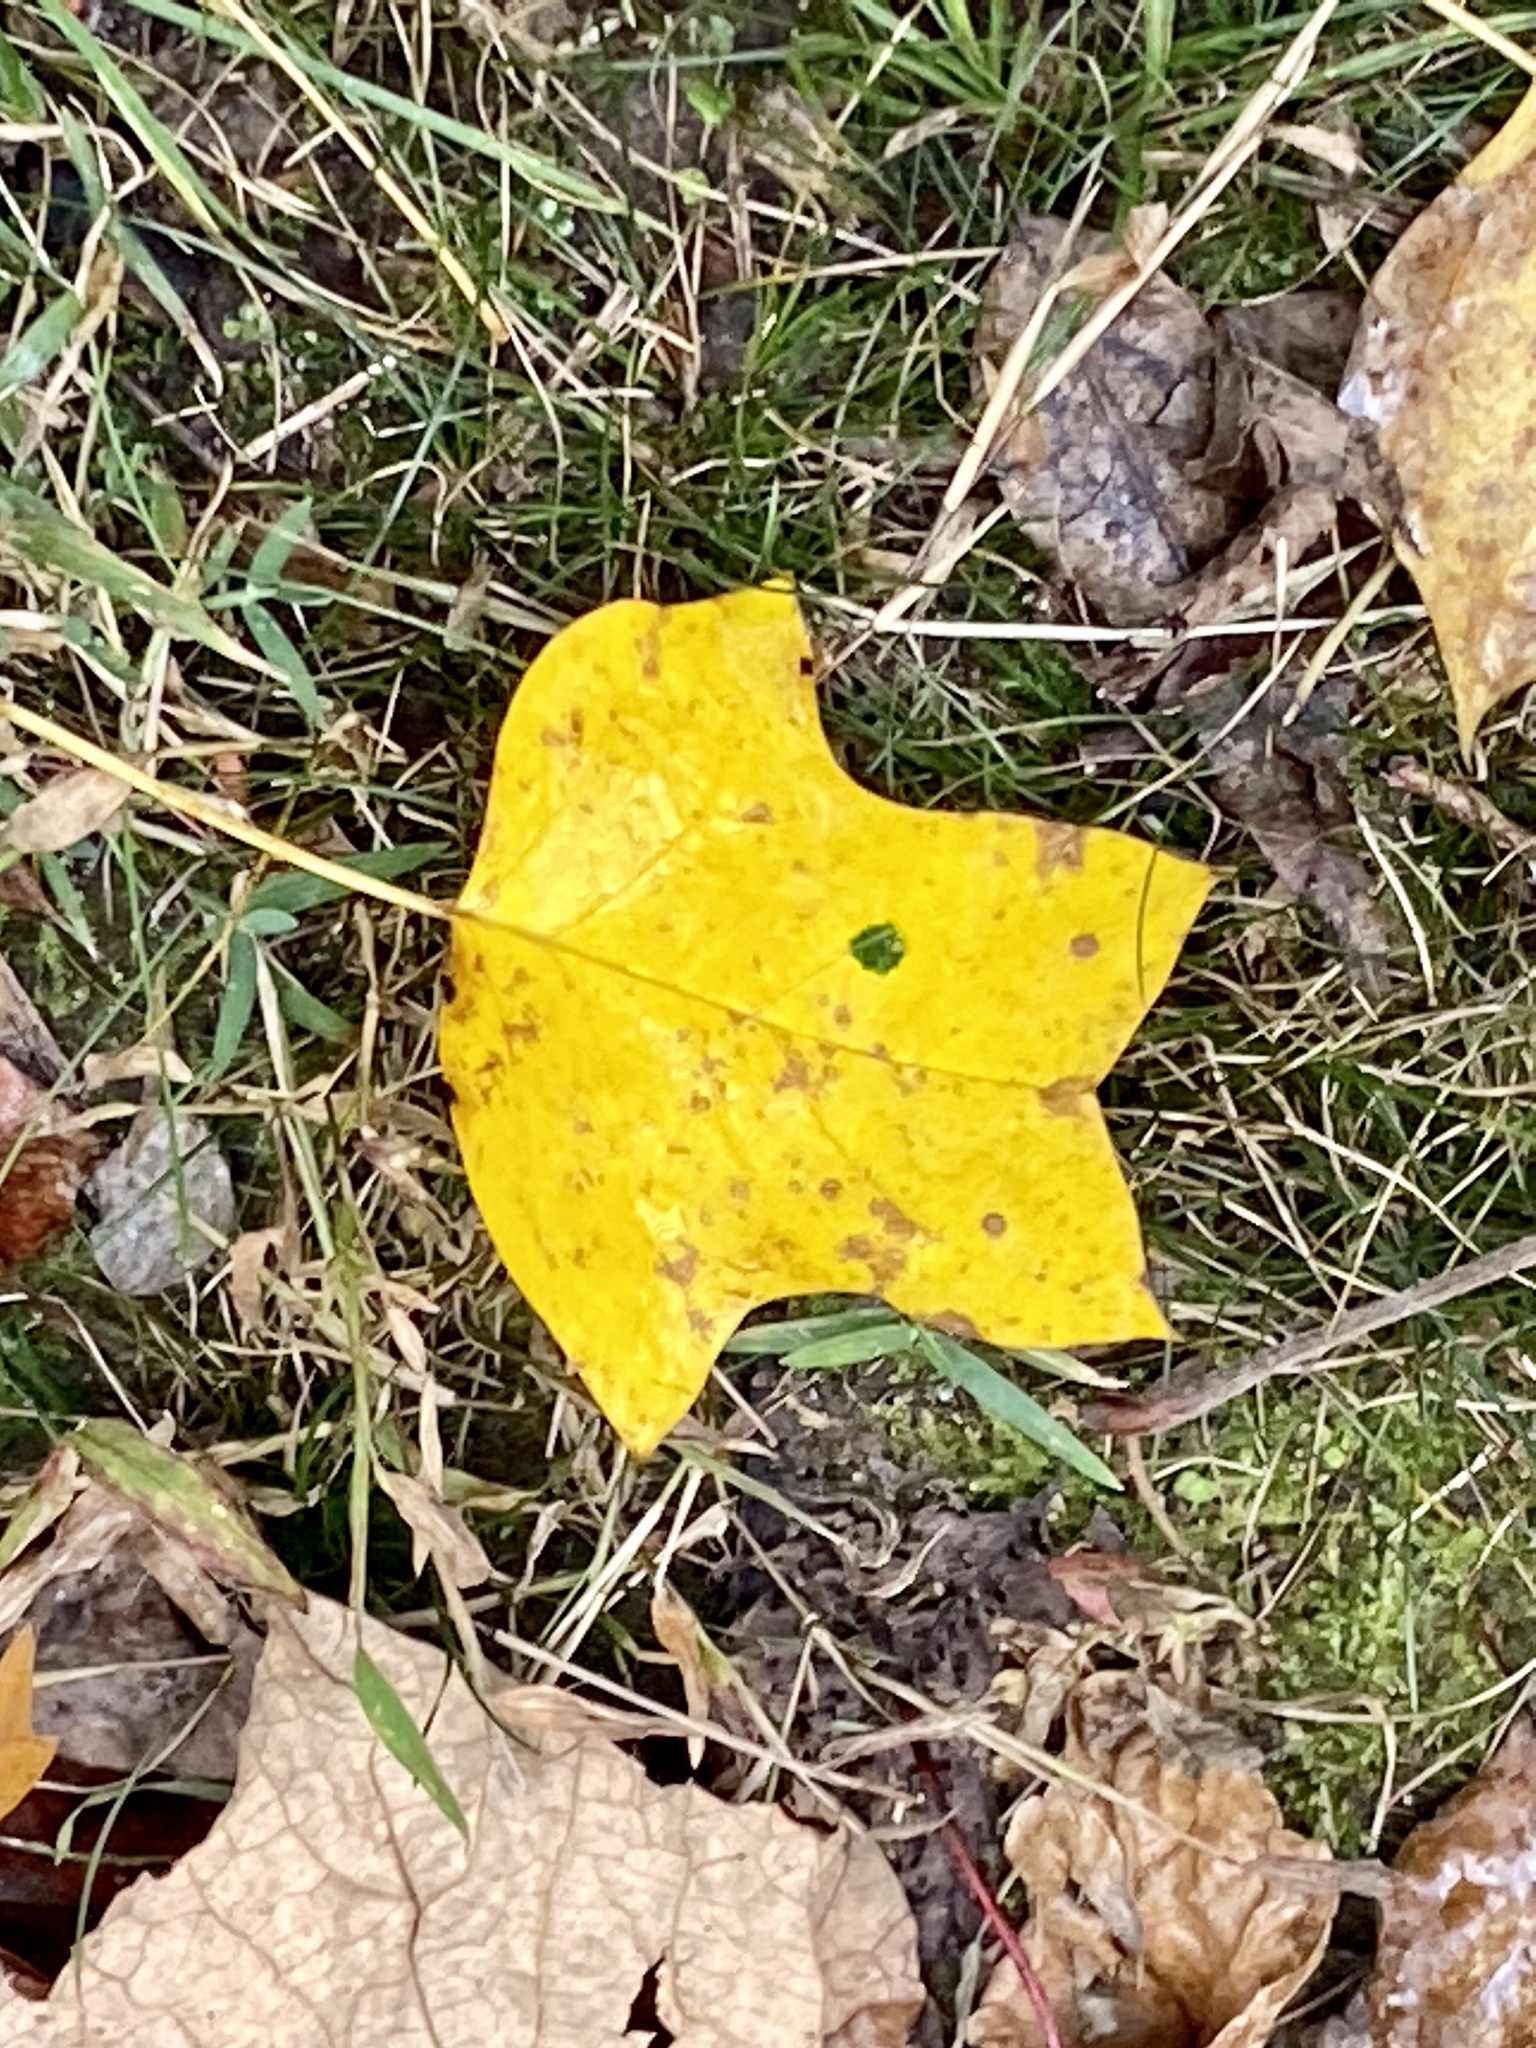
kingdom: Plantae
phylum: Tracheophyta
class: Magnoliopsida
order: Magnoliales
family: Magnoliaceae
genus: Liriodendron
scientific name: Liriodendron tulipifera
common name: Tulip tree
